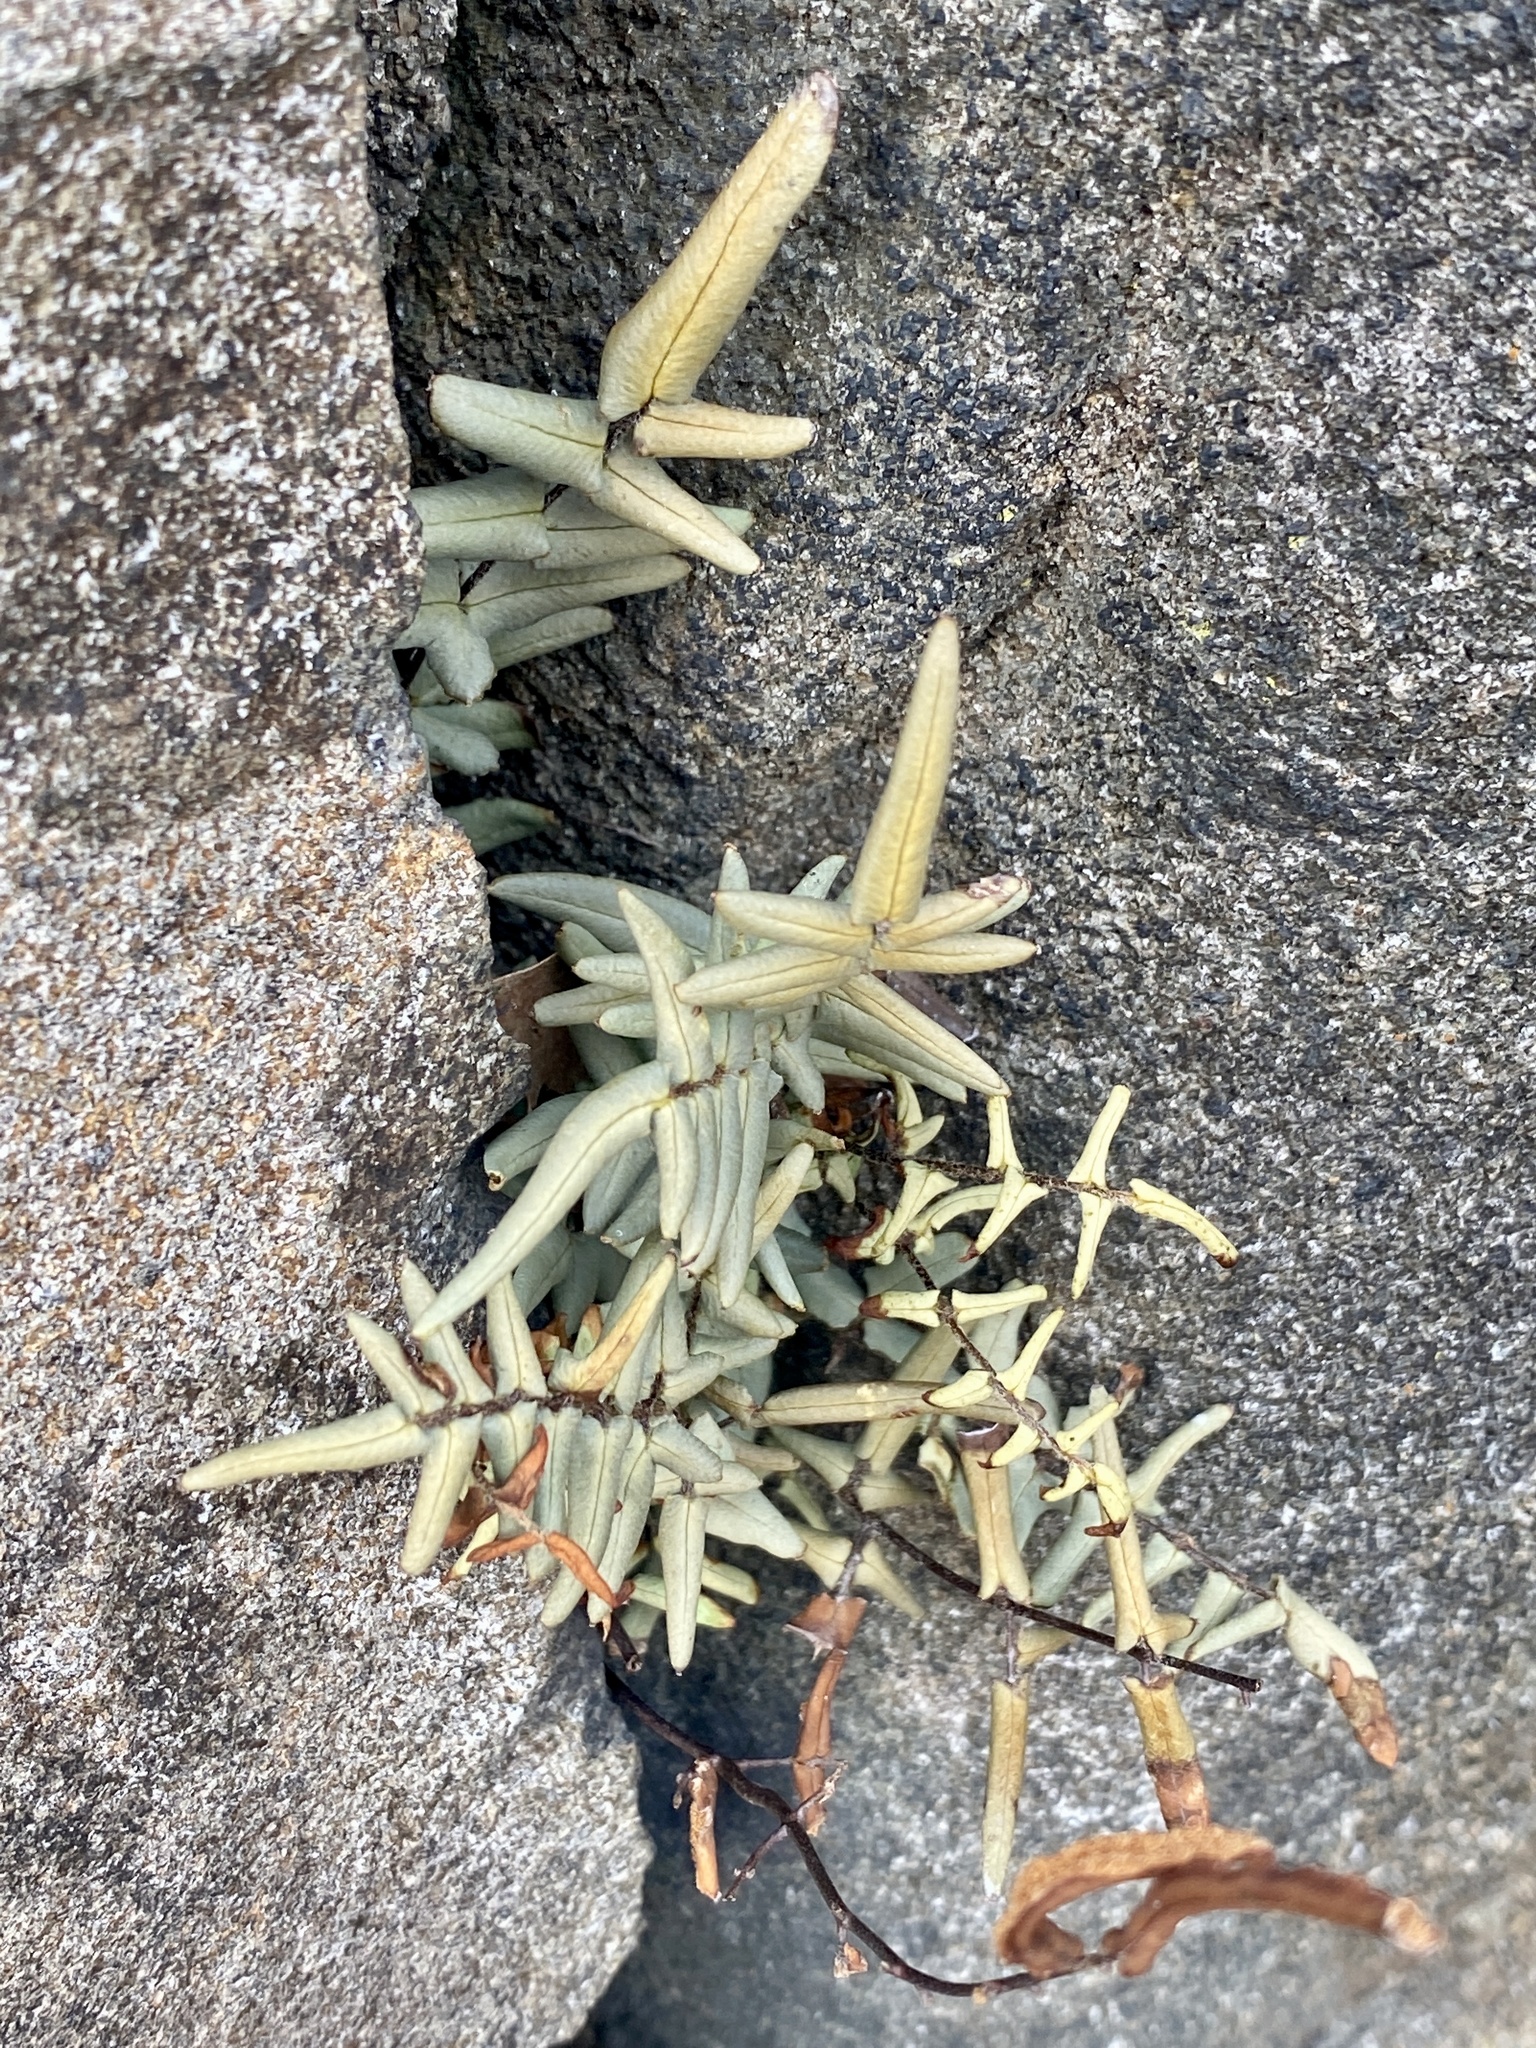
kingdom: Plantae
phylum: Tracheophyta
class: Polypodiopsida
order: Polypodiales
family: Pteridaceae
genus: Pellaea
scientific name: Pellaea atropurpurea
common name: Hairy cliffbrake
